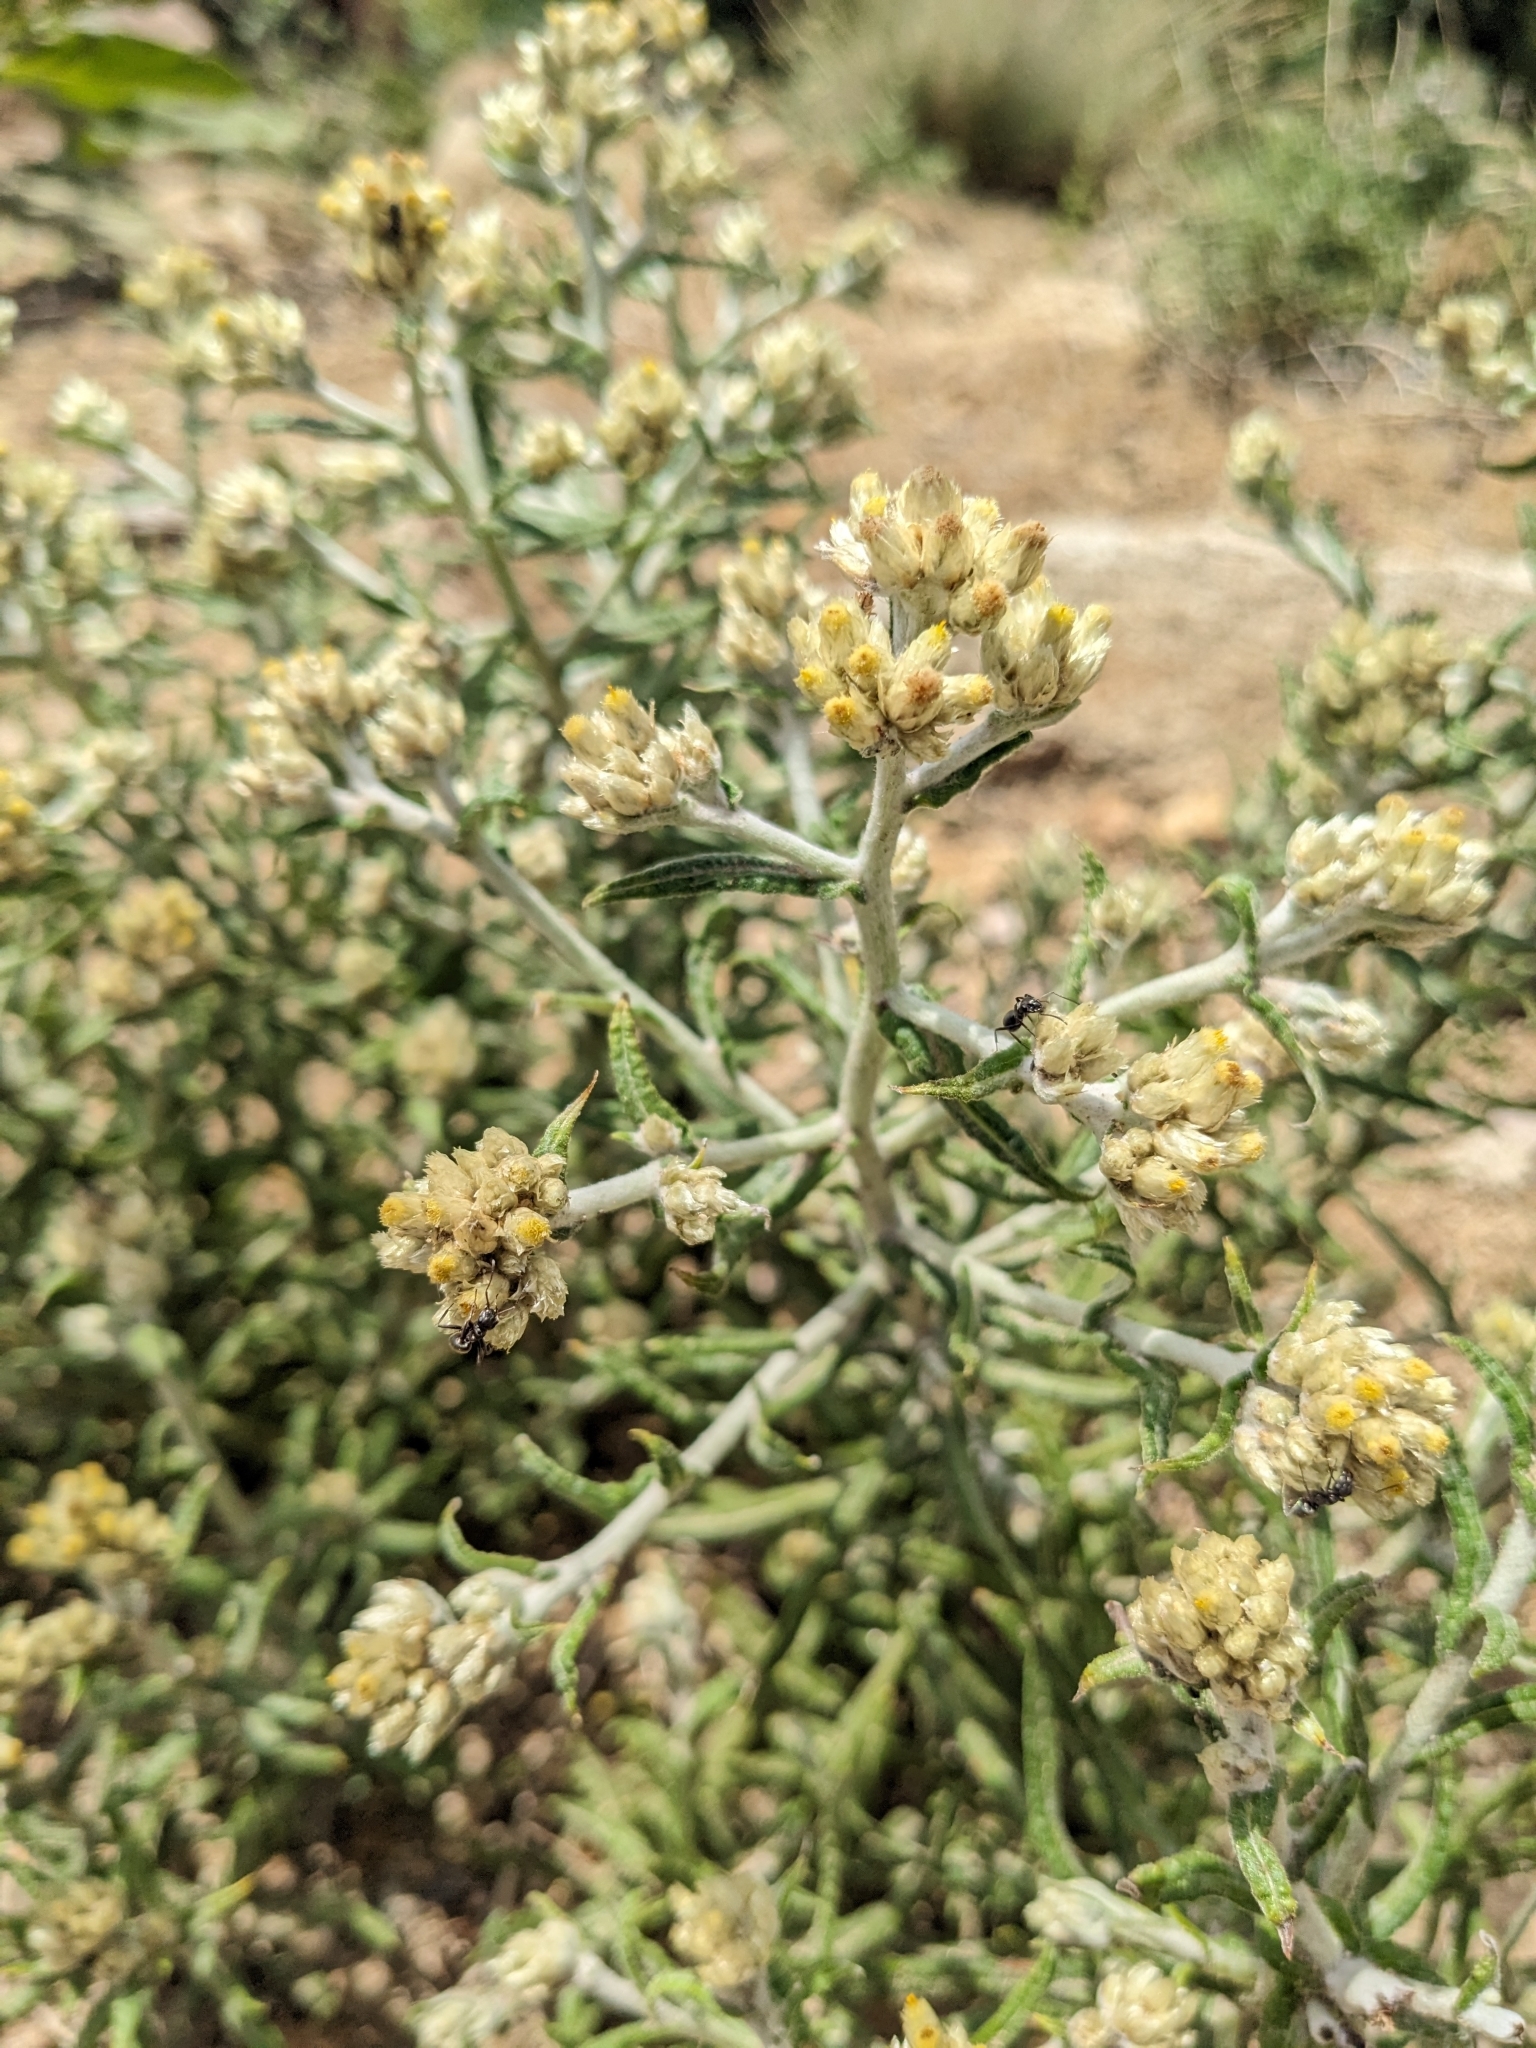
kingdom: Plantae
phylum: Tracheophyta
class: Magnoliopsida
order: Asterales
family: Asteraceae
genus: Pseudognaphalium
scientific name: Pseudognaphalium macounii
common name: Clammy cudweed
